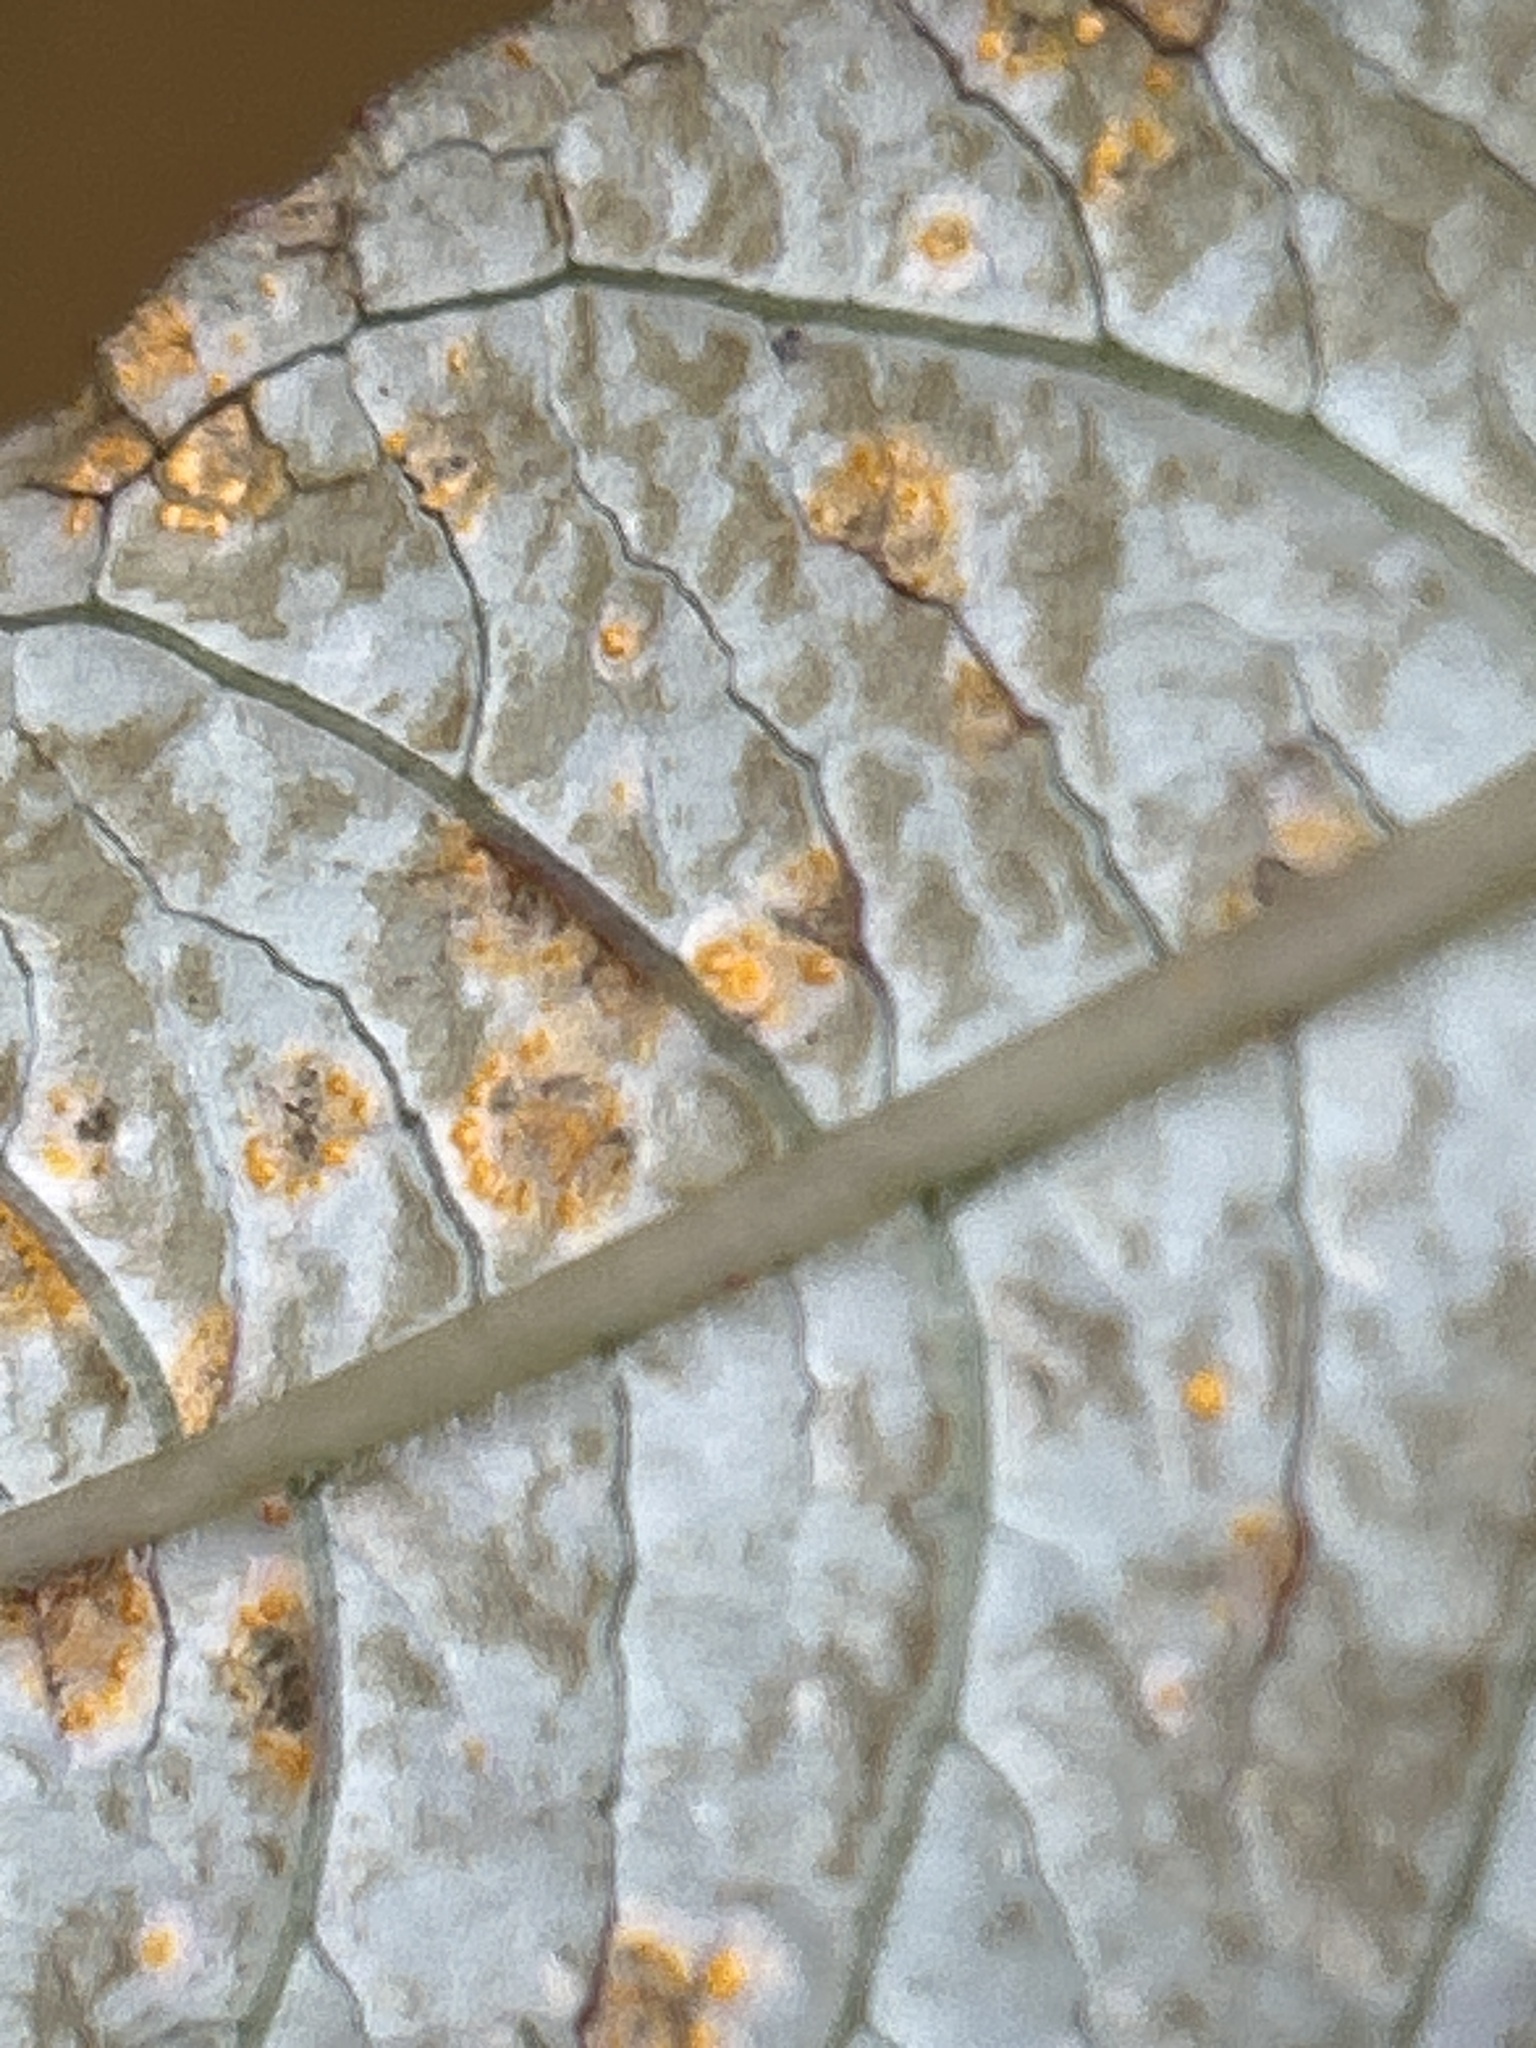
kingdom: Fungi
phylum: Basidiomycota
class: Pucciniomycetes
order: Pucciniales
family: Mikronegeriaceae
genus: Mikronegeria
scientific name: Mikronegeria fuchsiae
